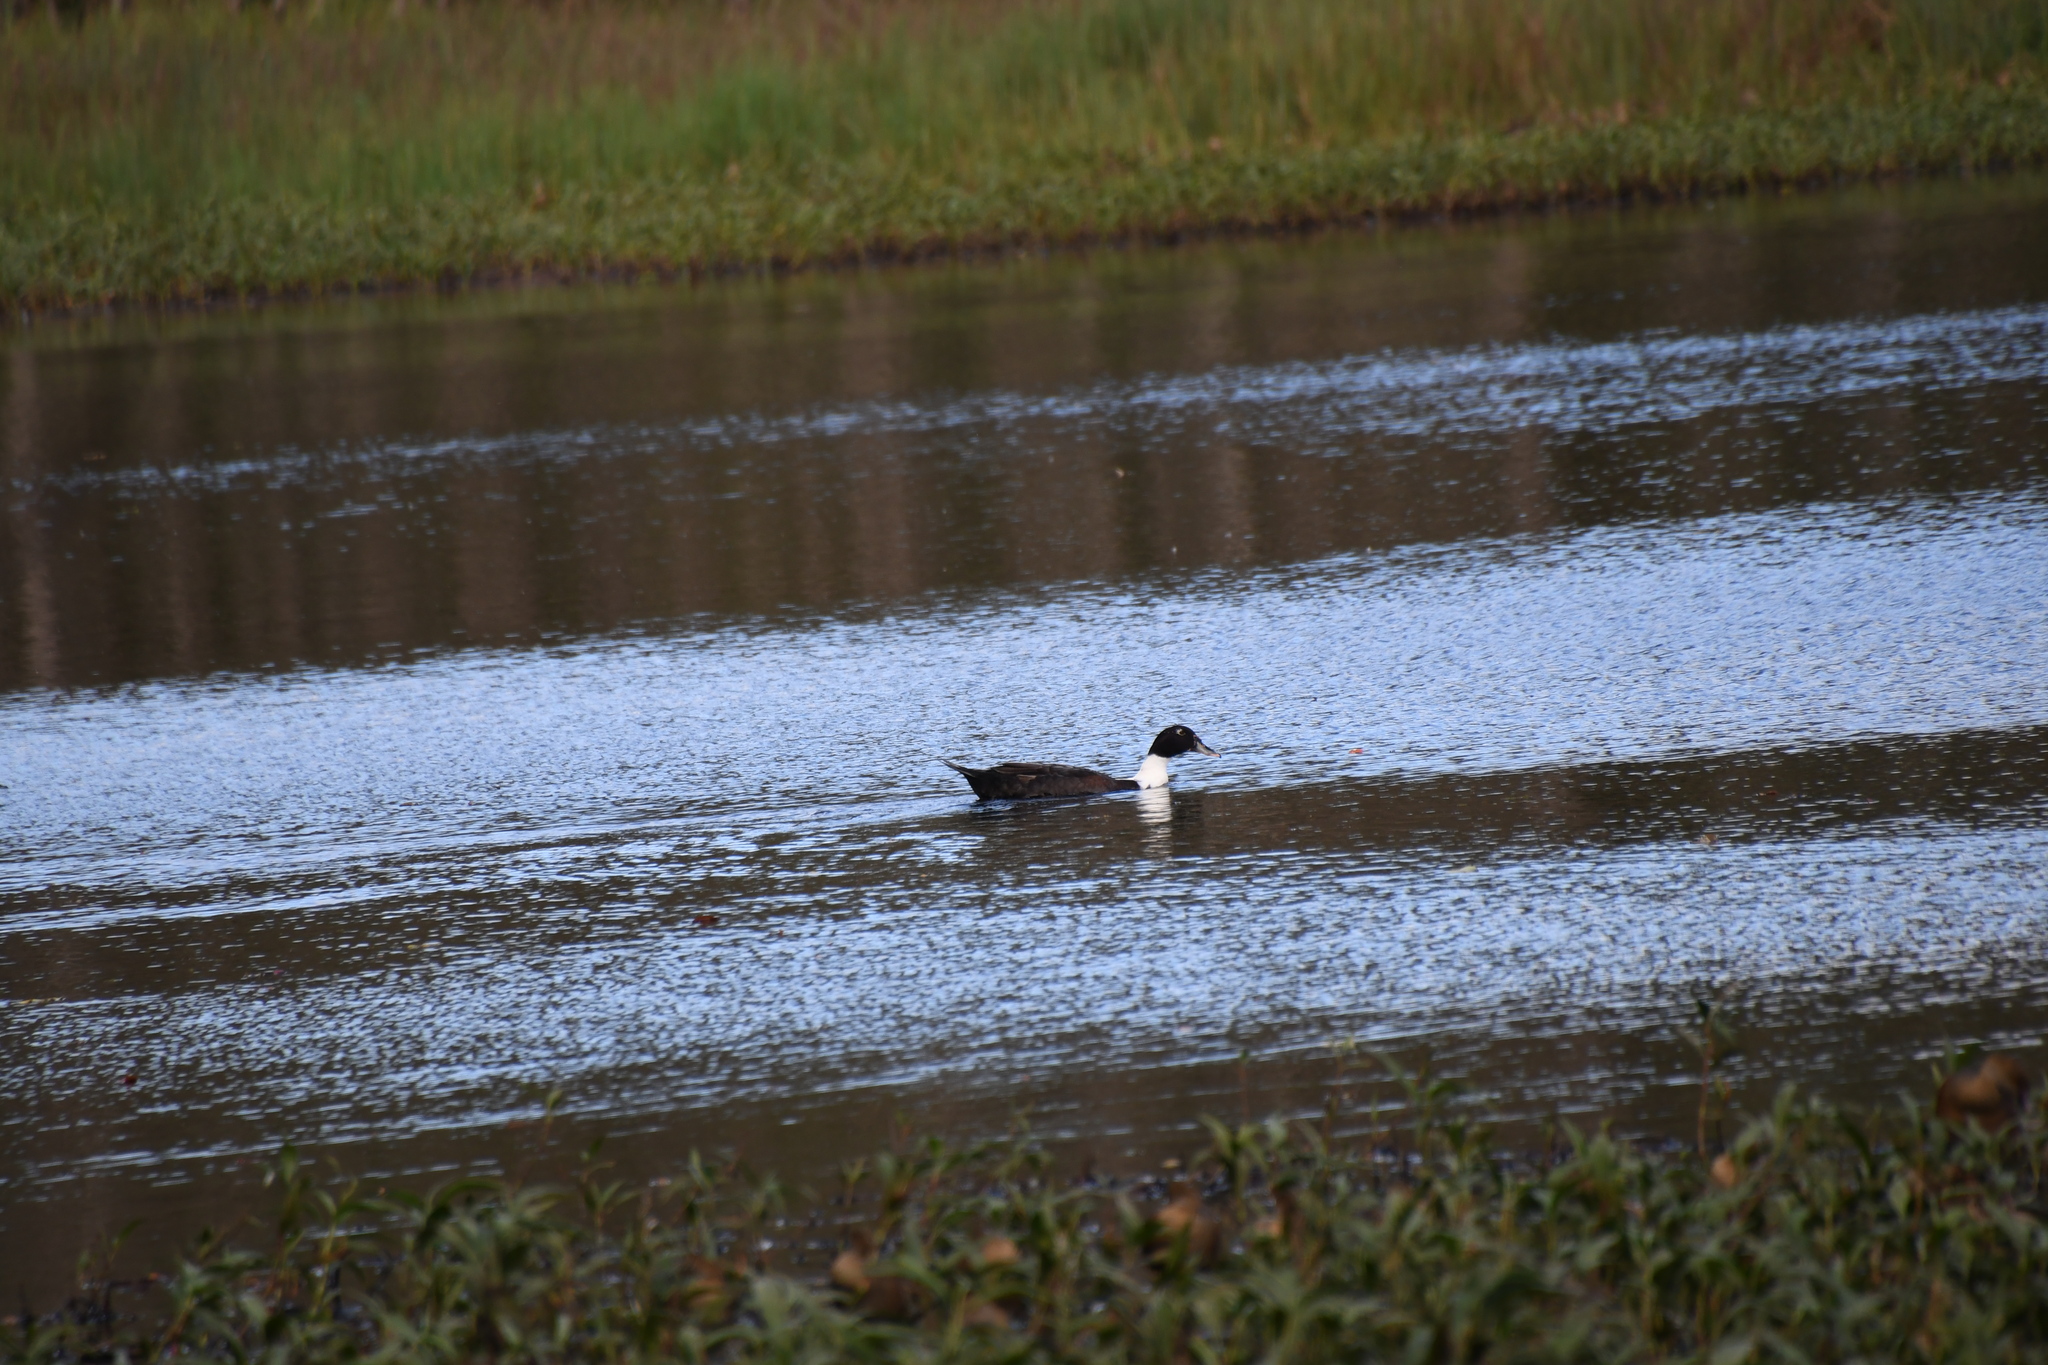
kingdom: Animalia
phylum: Chordata
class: Aves
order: Anseriformes
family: Anatidae
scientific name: Anatidae
